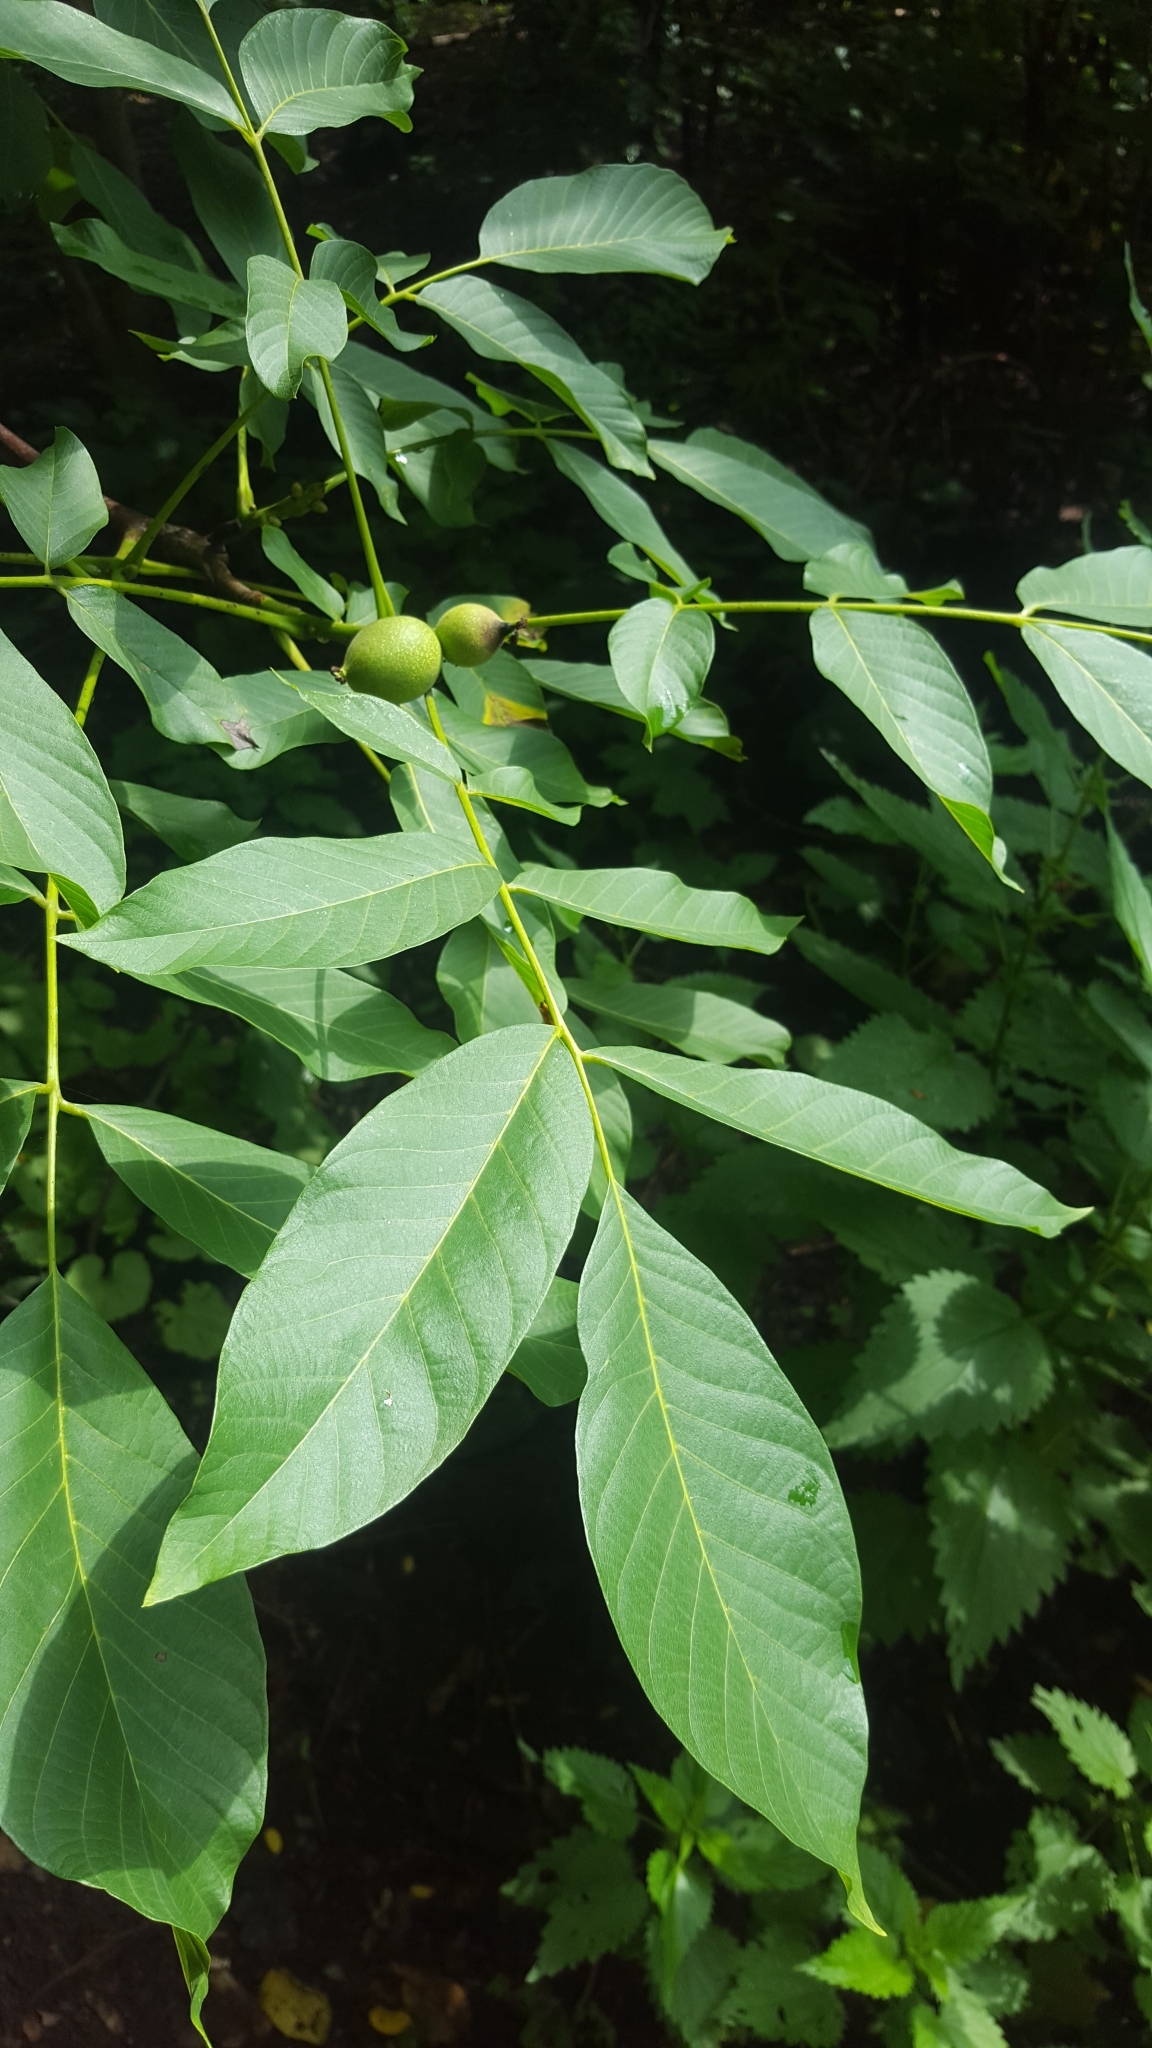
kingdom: Plantae
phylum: Tracheophyta
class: Magnoliopsida
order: Fagales
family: Juglandaceae
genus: Juglans
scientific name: Juglans regia
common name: Walnut
